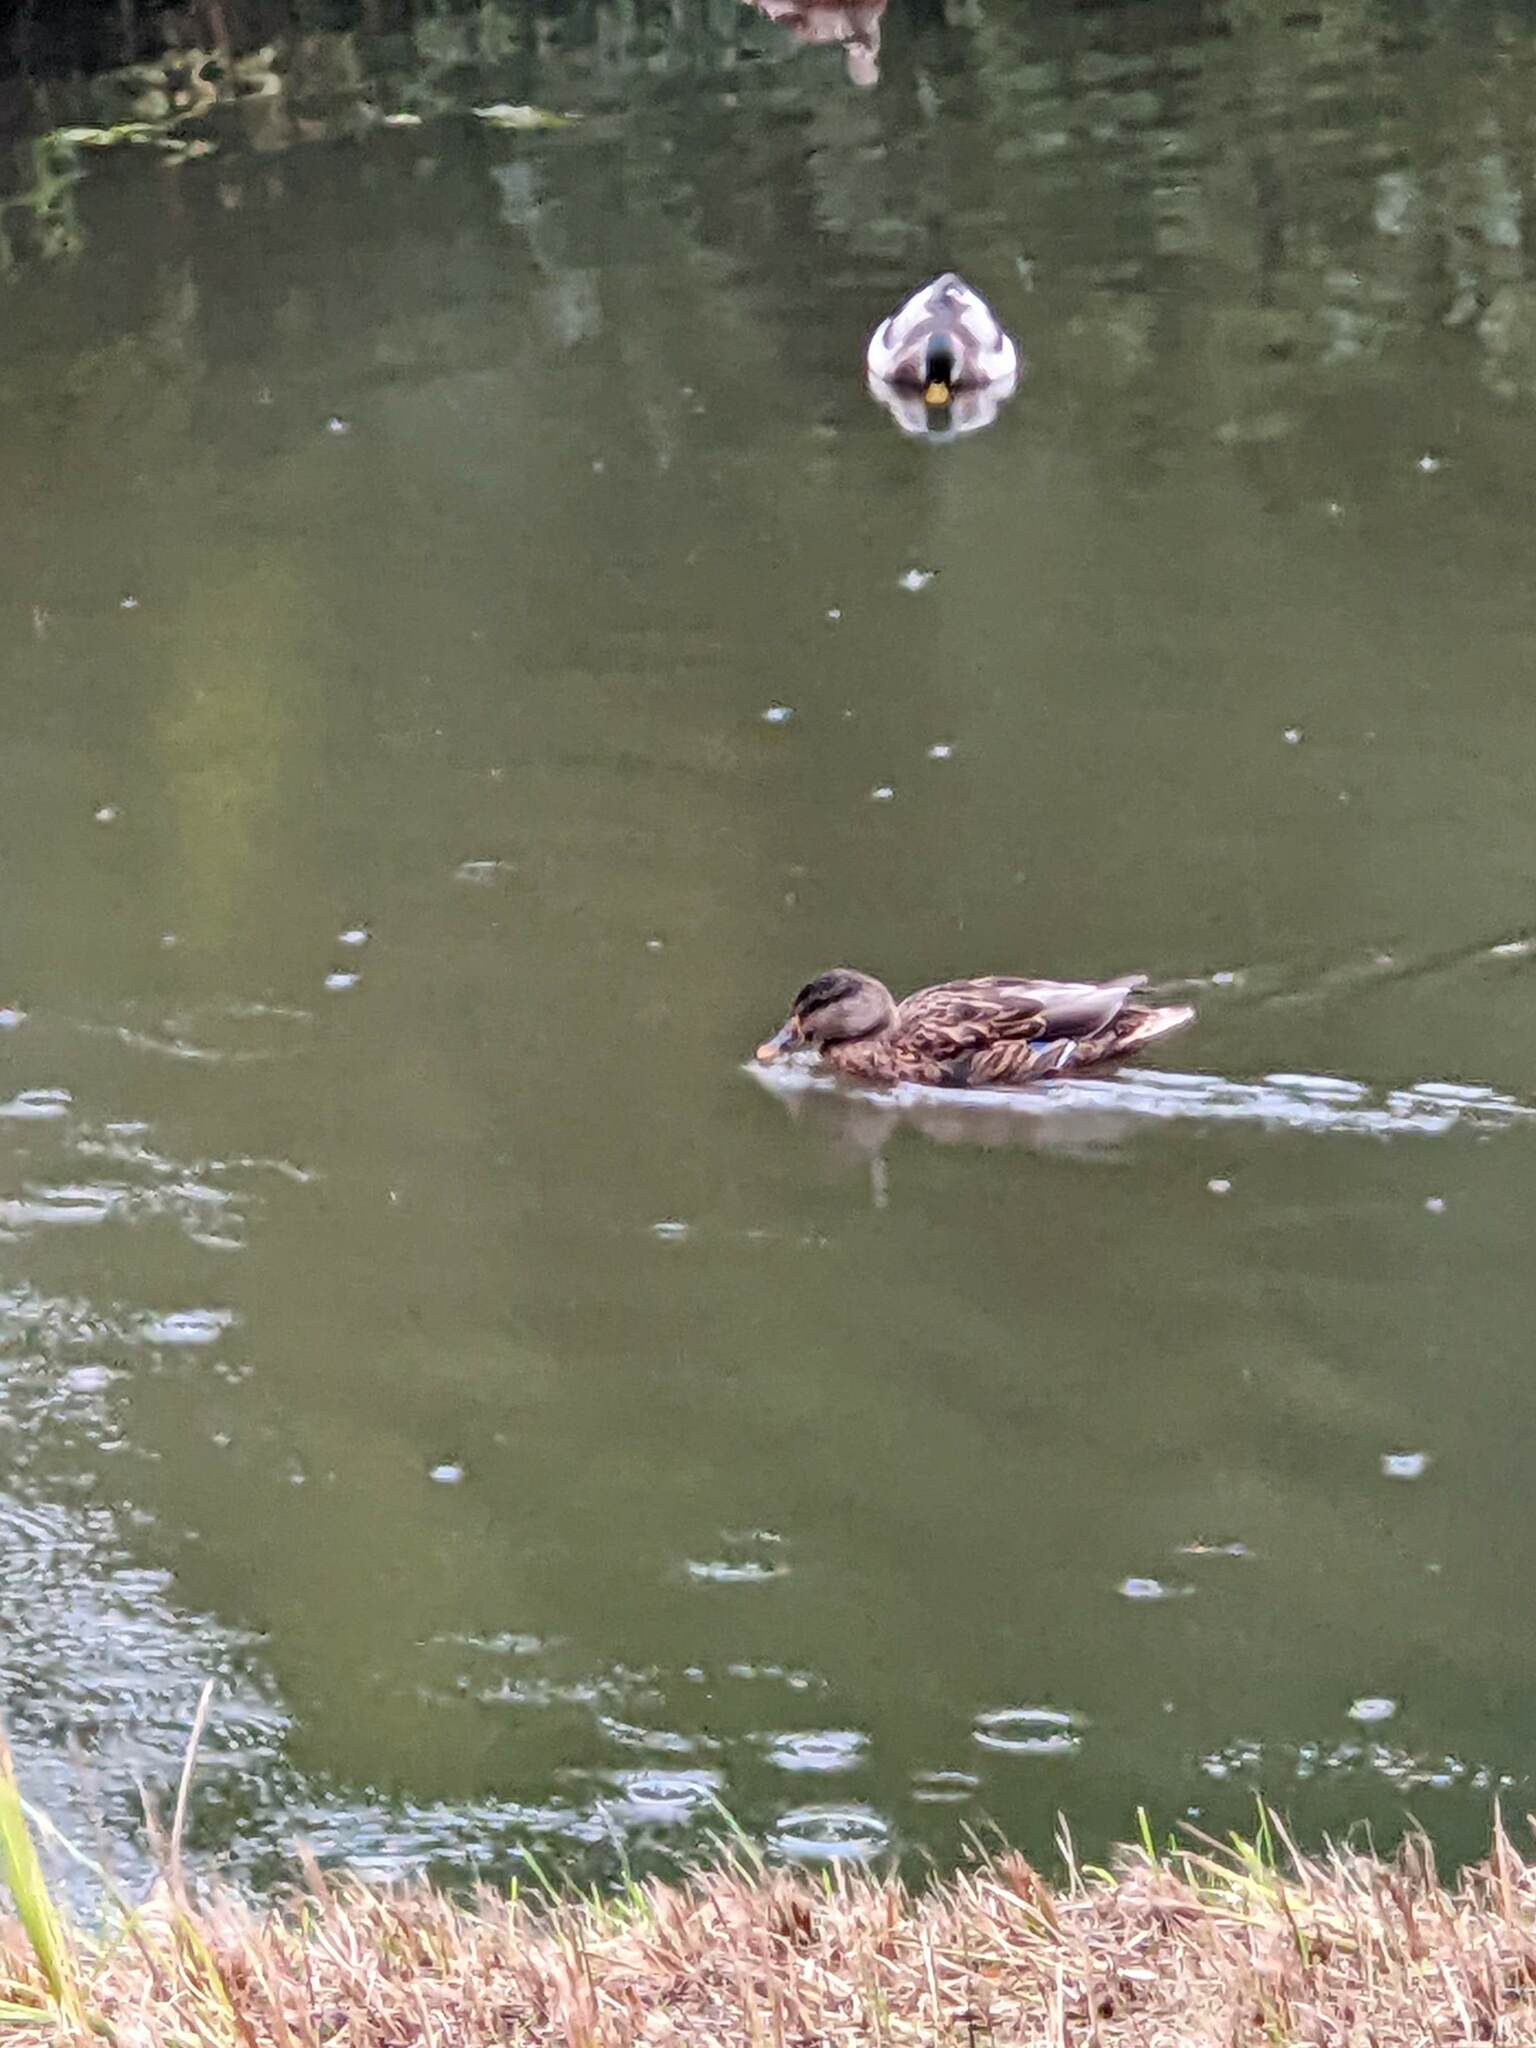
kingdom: Animalia
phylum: Chordata
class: Aves
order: Anseriformes
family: Anatidae
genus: Anas
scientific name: Anas platyrhynchos
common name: Mallard
